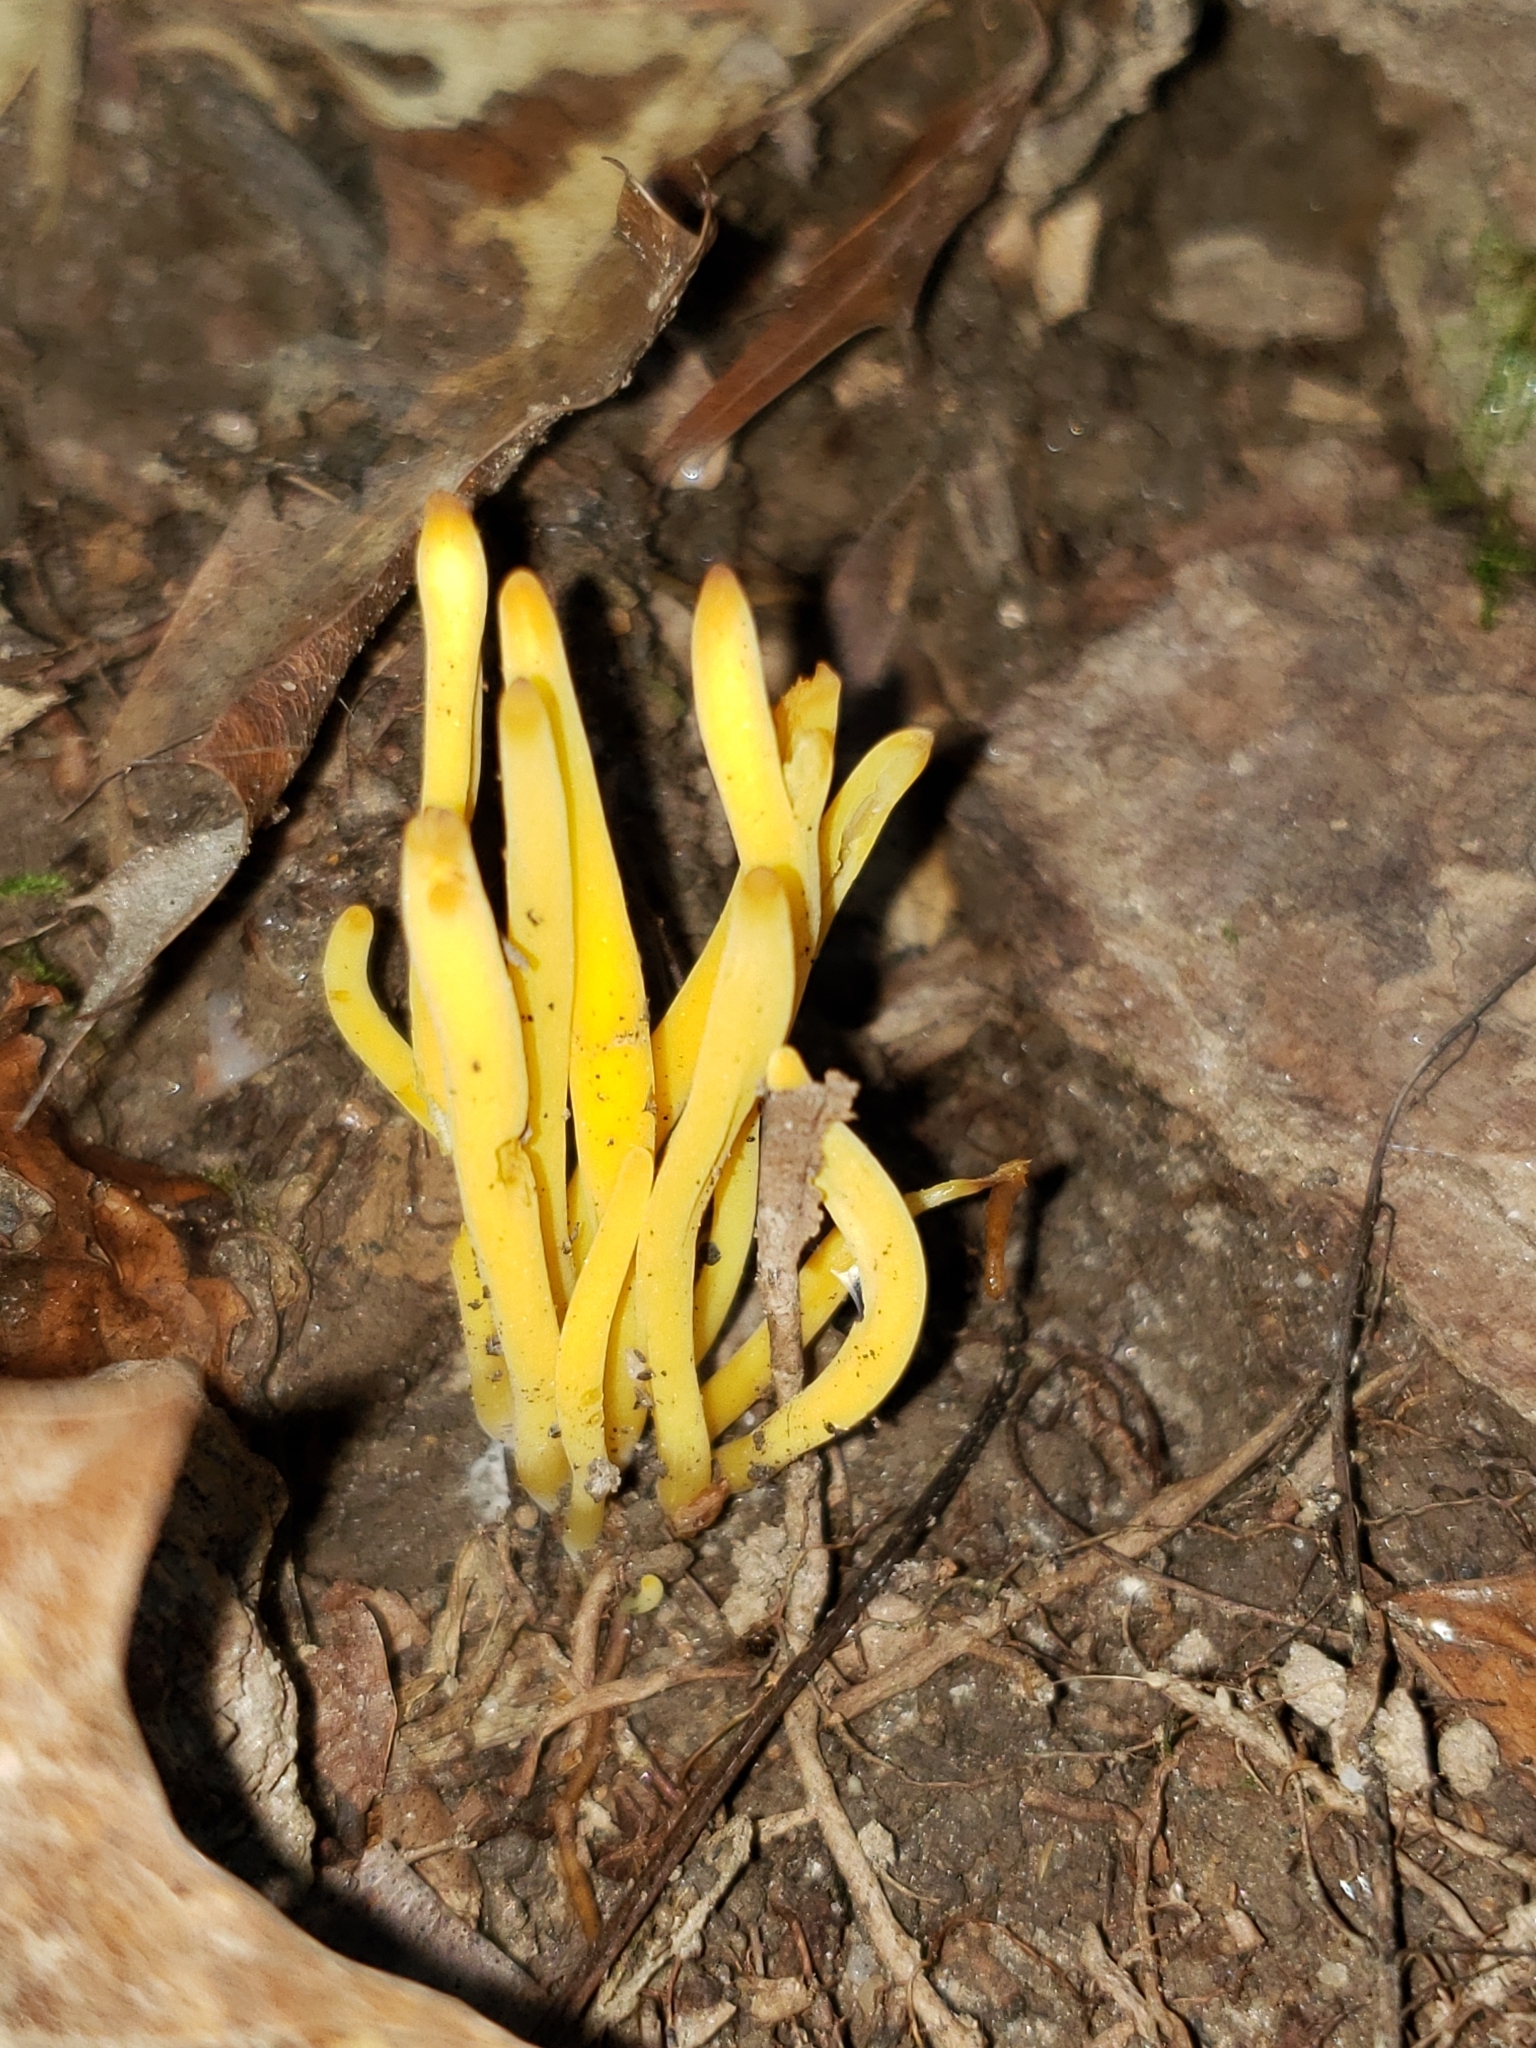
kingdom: Fungi
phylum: Basidiomycota
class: Agaricomycetes
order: Agaricales
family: Clavariaceae
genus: Clavulinopsis
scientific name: Clavulinopsis fusiformis
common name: Golden spindles
